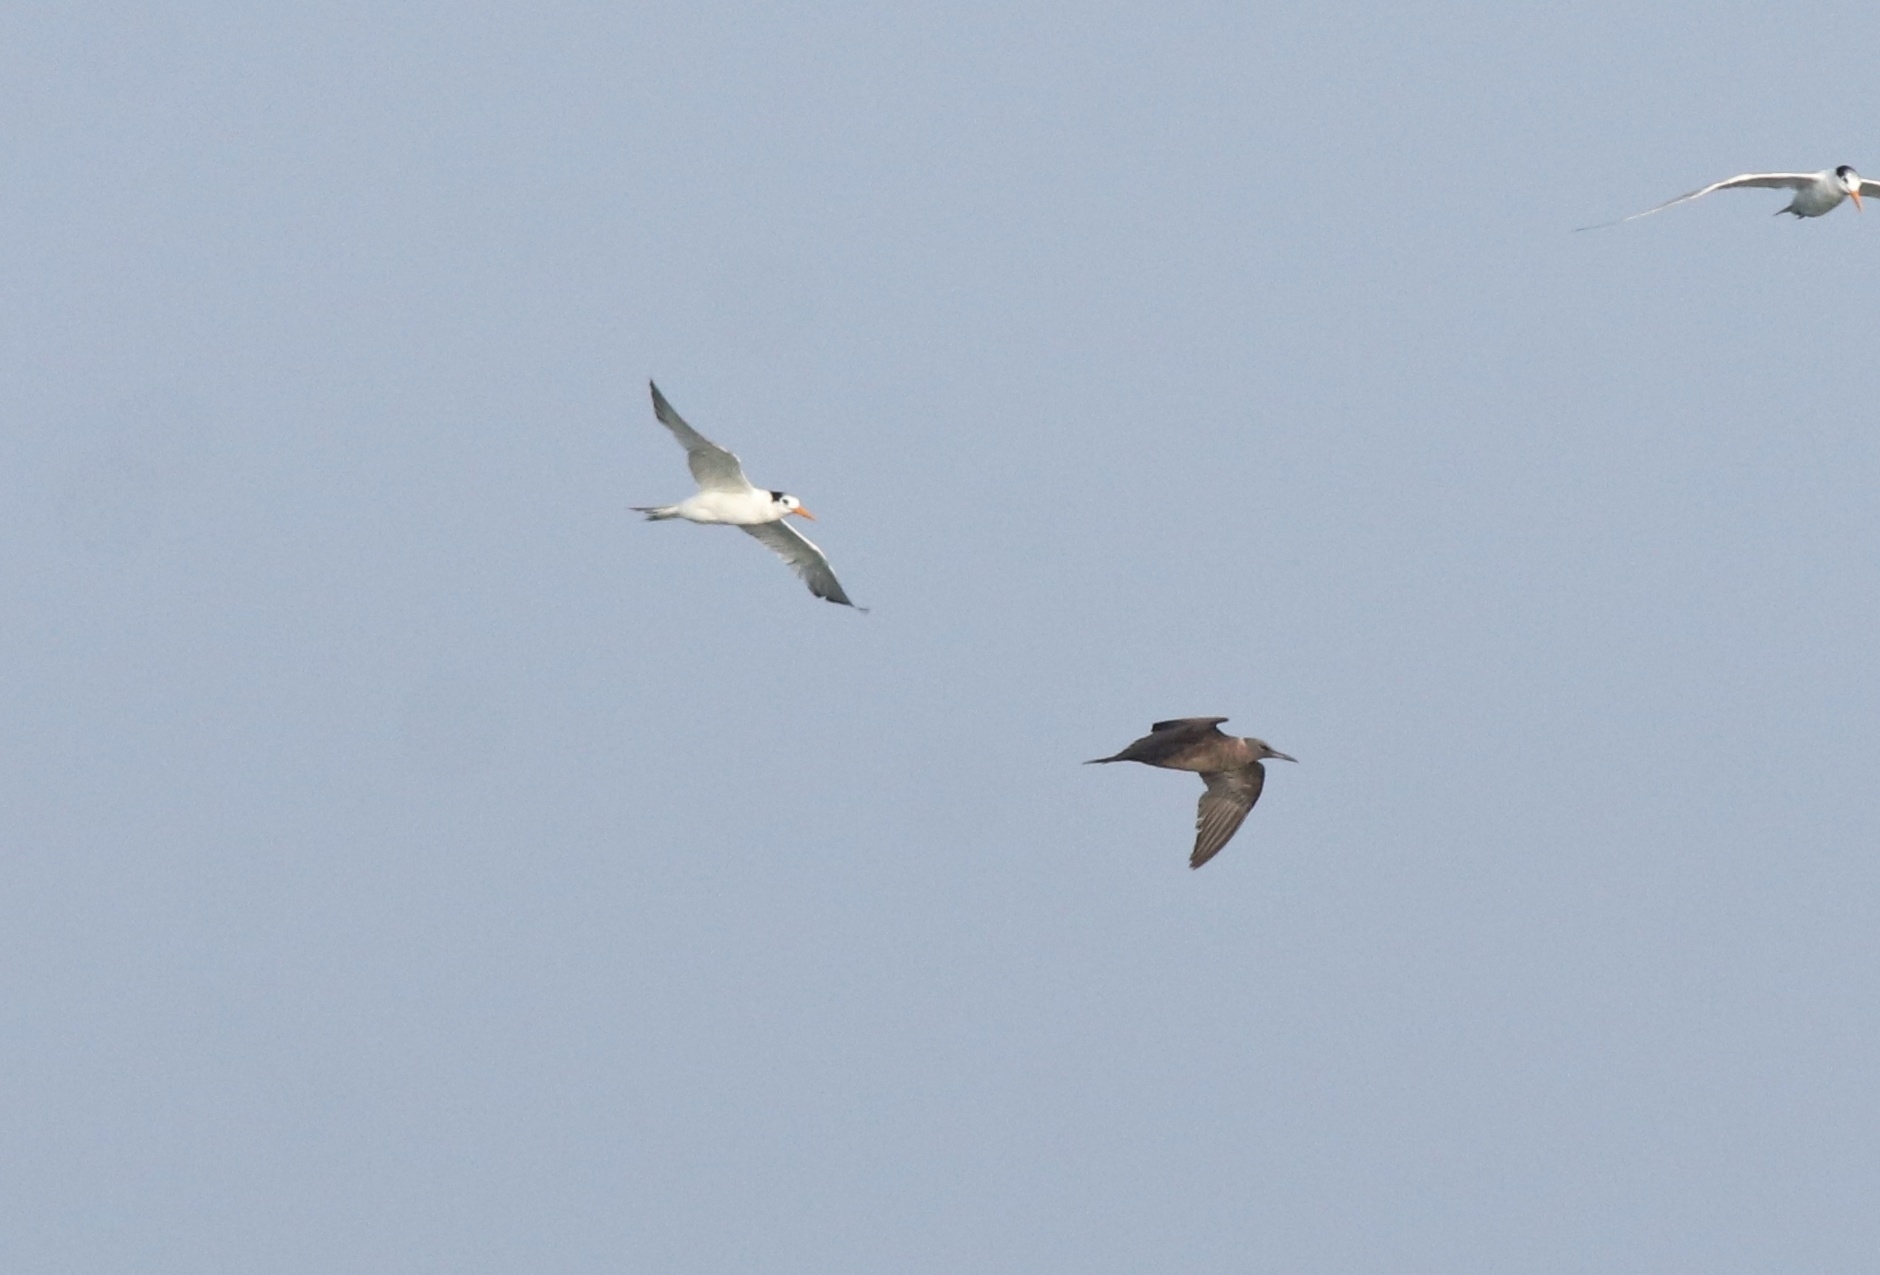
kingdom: Animalia
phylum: Chordata
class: Aves
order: Charadriiformes
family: Laridae
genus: Thalasseus
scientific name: Thalasseus bengalensis
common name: Lesser crested tern
